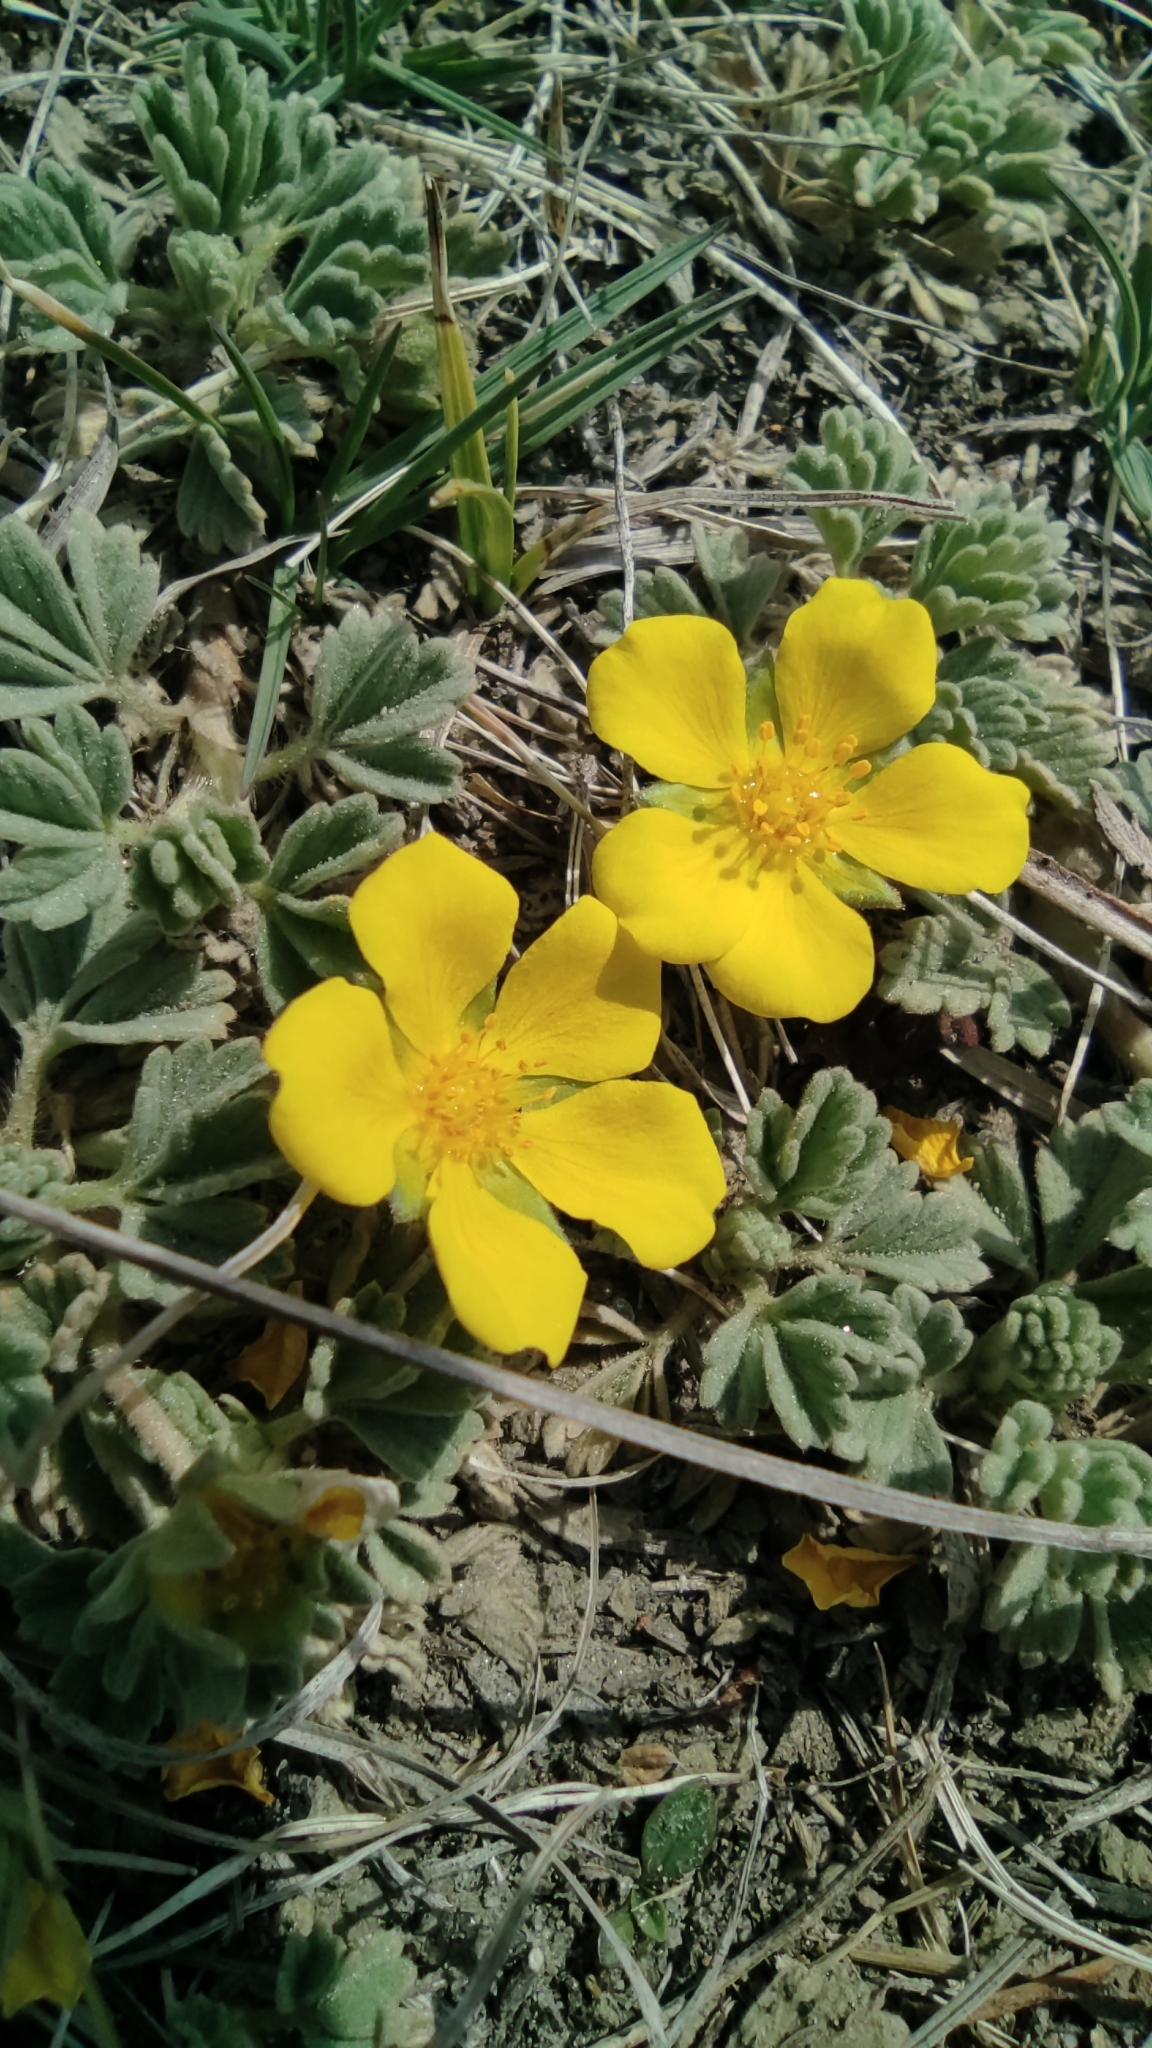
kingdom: Plantae
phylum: Tracheophyta
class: Magnoliopsida
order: Rosales
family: Rosaceae
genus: Potentilla
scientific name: Potentilla acaulis
